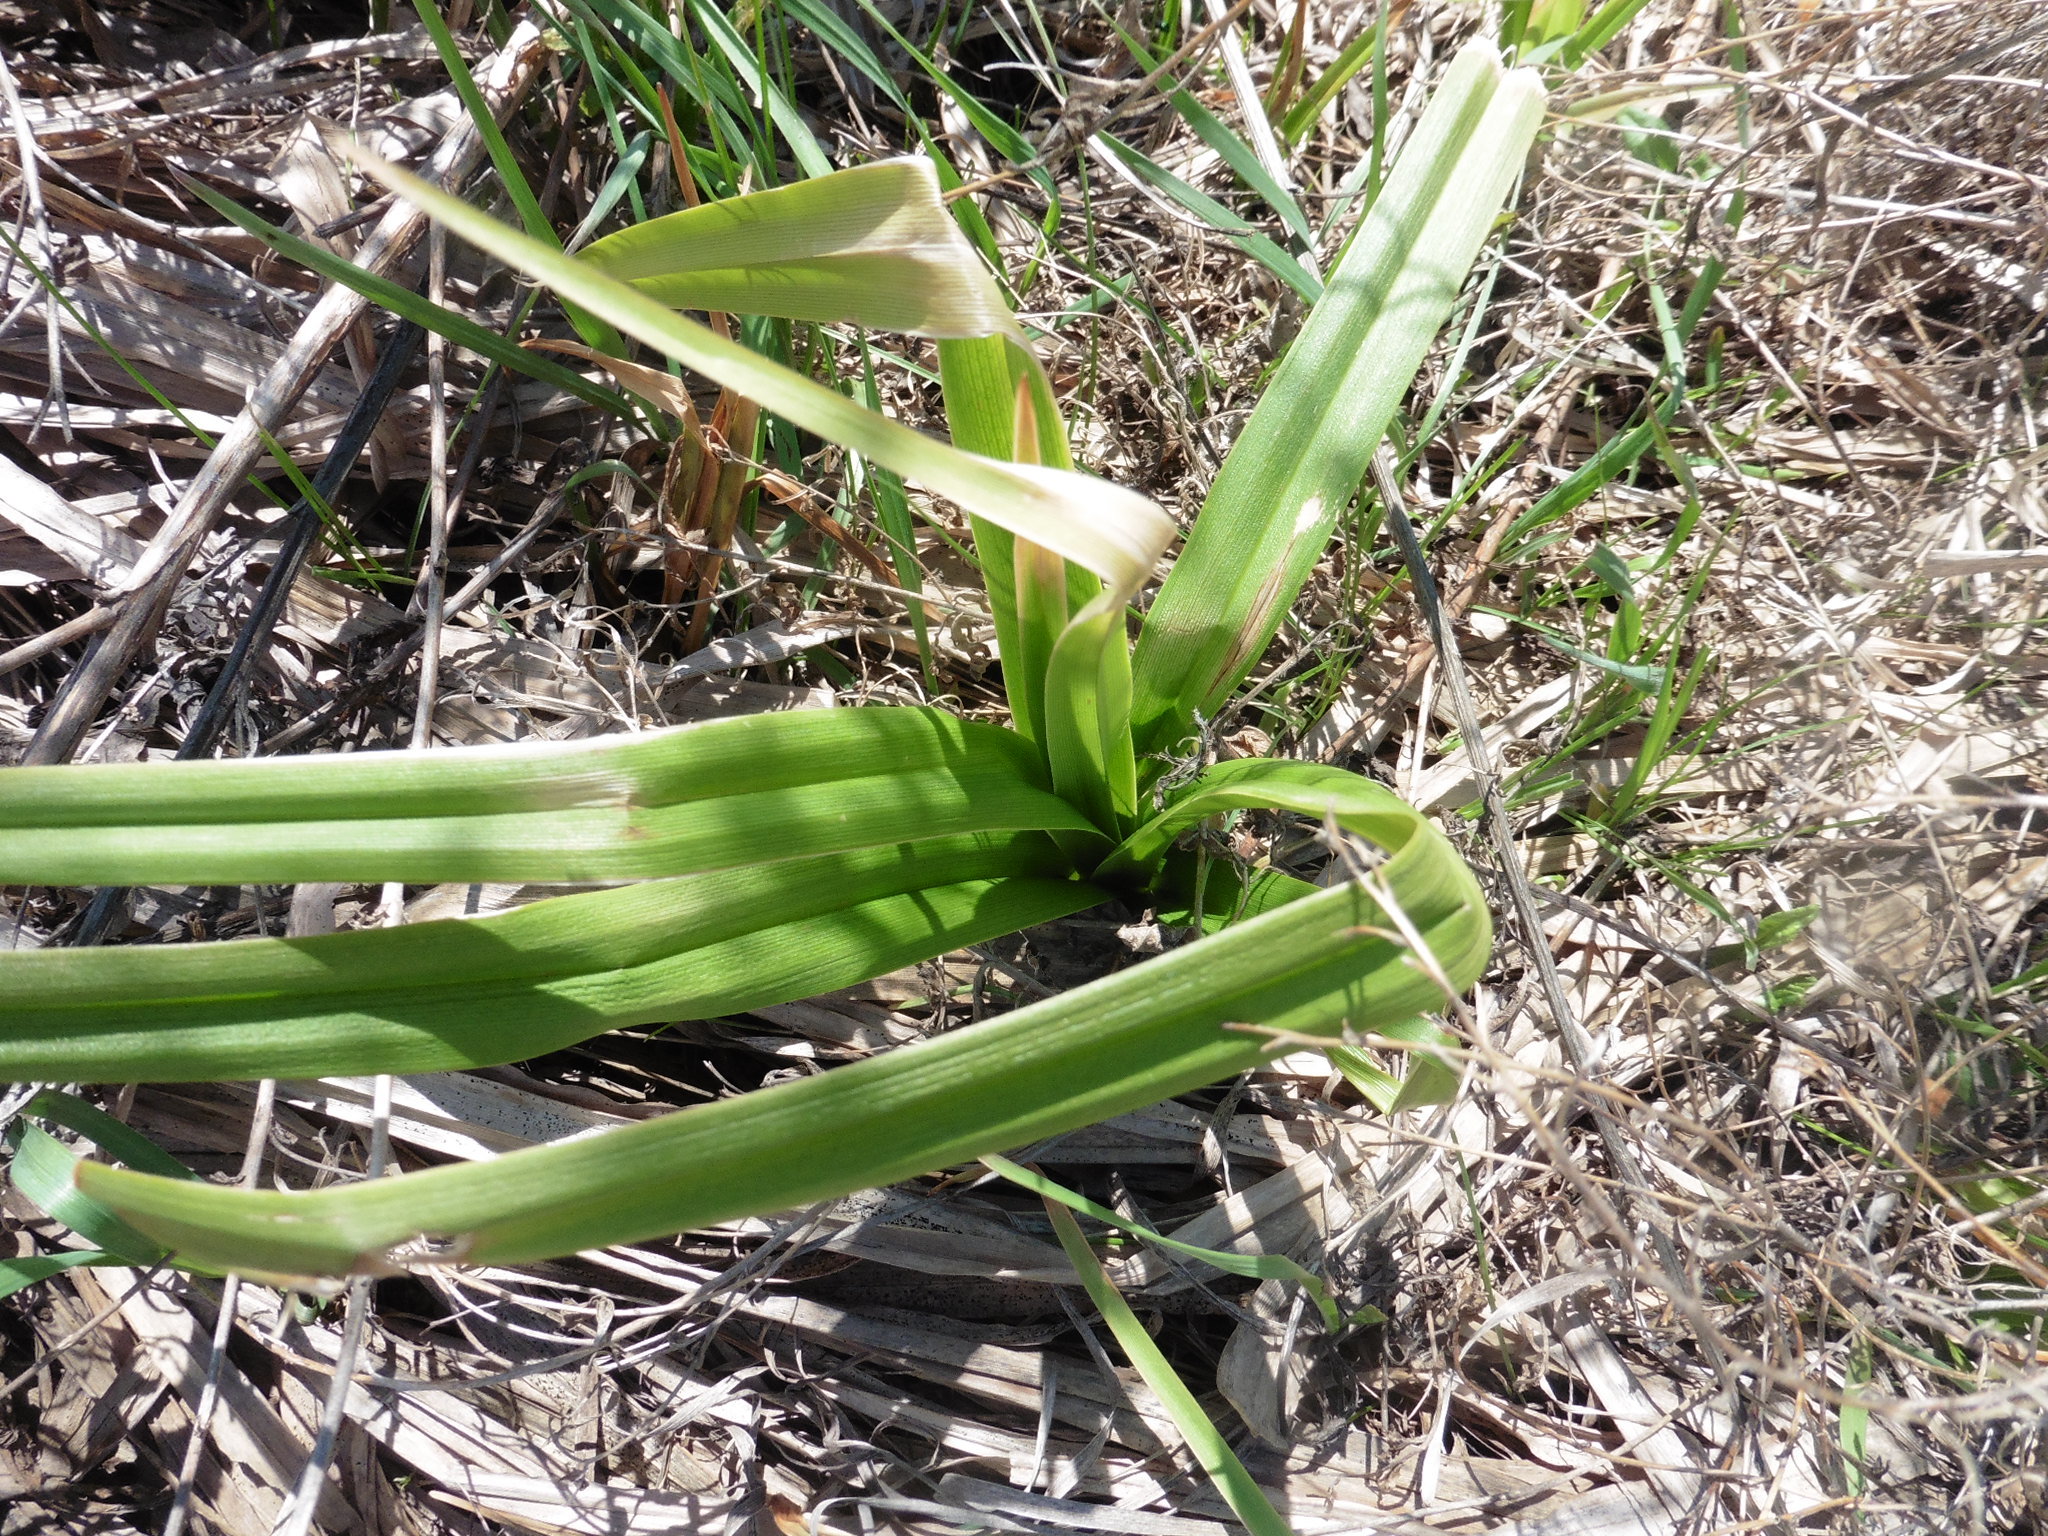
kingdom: Plantae
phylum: Tracheophyta
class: Liliopsida
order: Poales
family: Cyperaceae
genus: Scirpus
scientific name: Scirpus sylvaticus
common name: Wood club-rush
